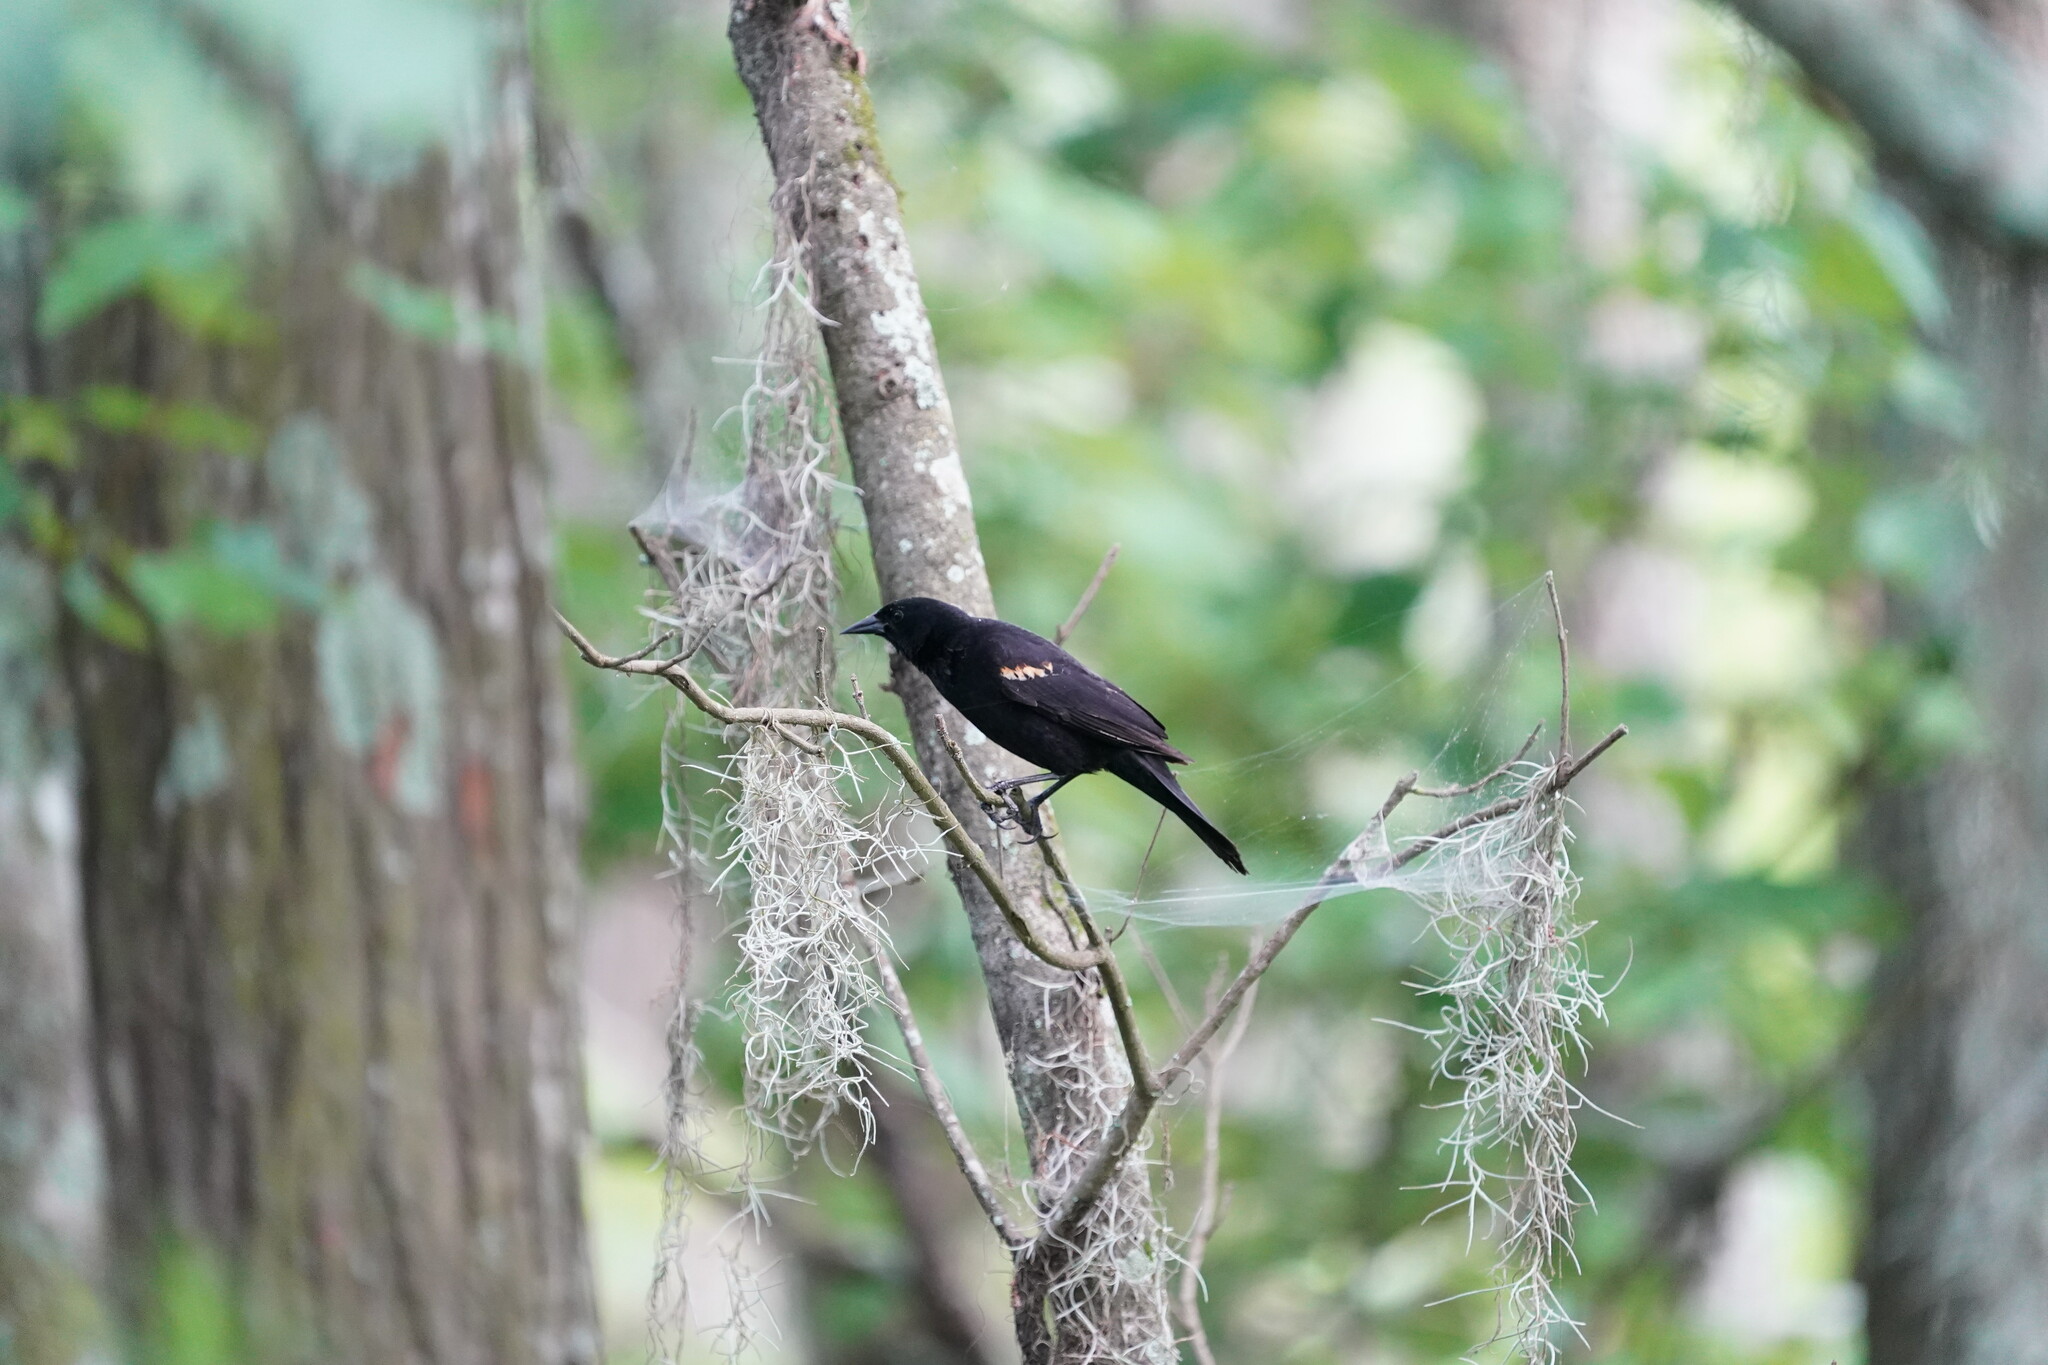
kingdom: Animalia
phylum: Chordata
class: Aves
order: Passeriformes
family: Icteridae
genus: Agelaius
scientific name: Agelaius phoeniceus
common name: Red-winged blackbird
